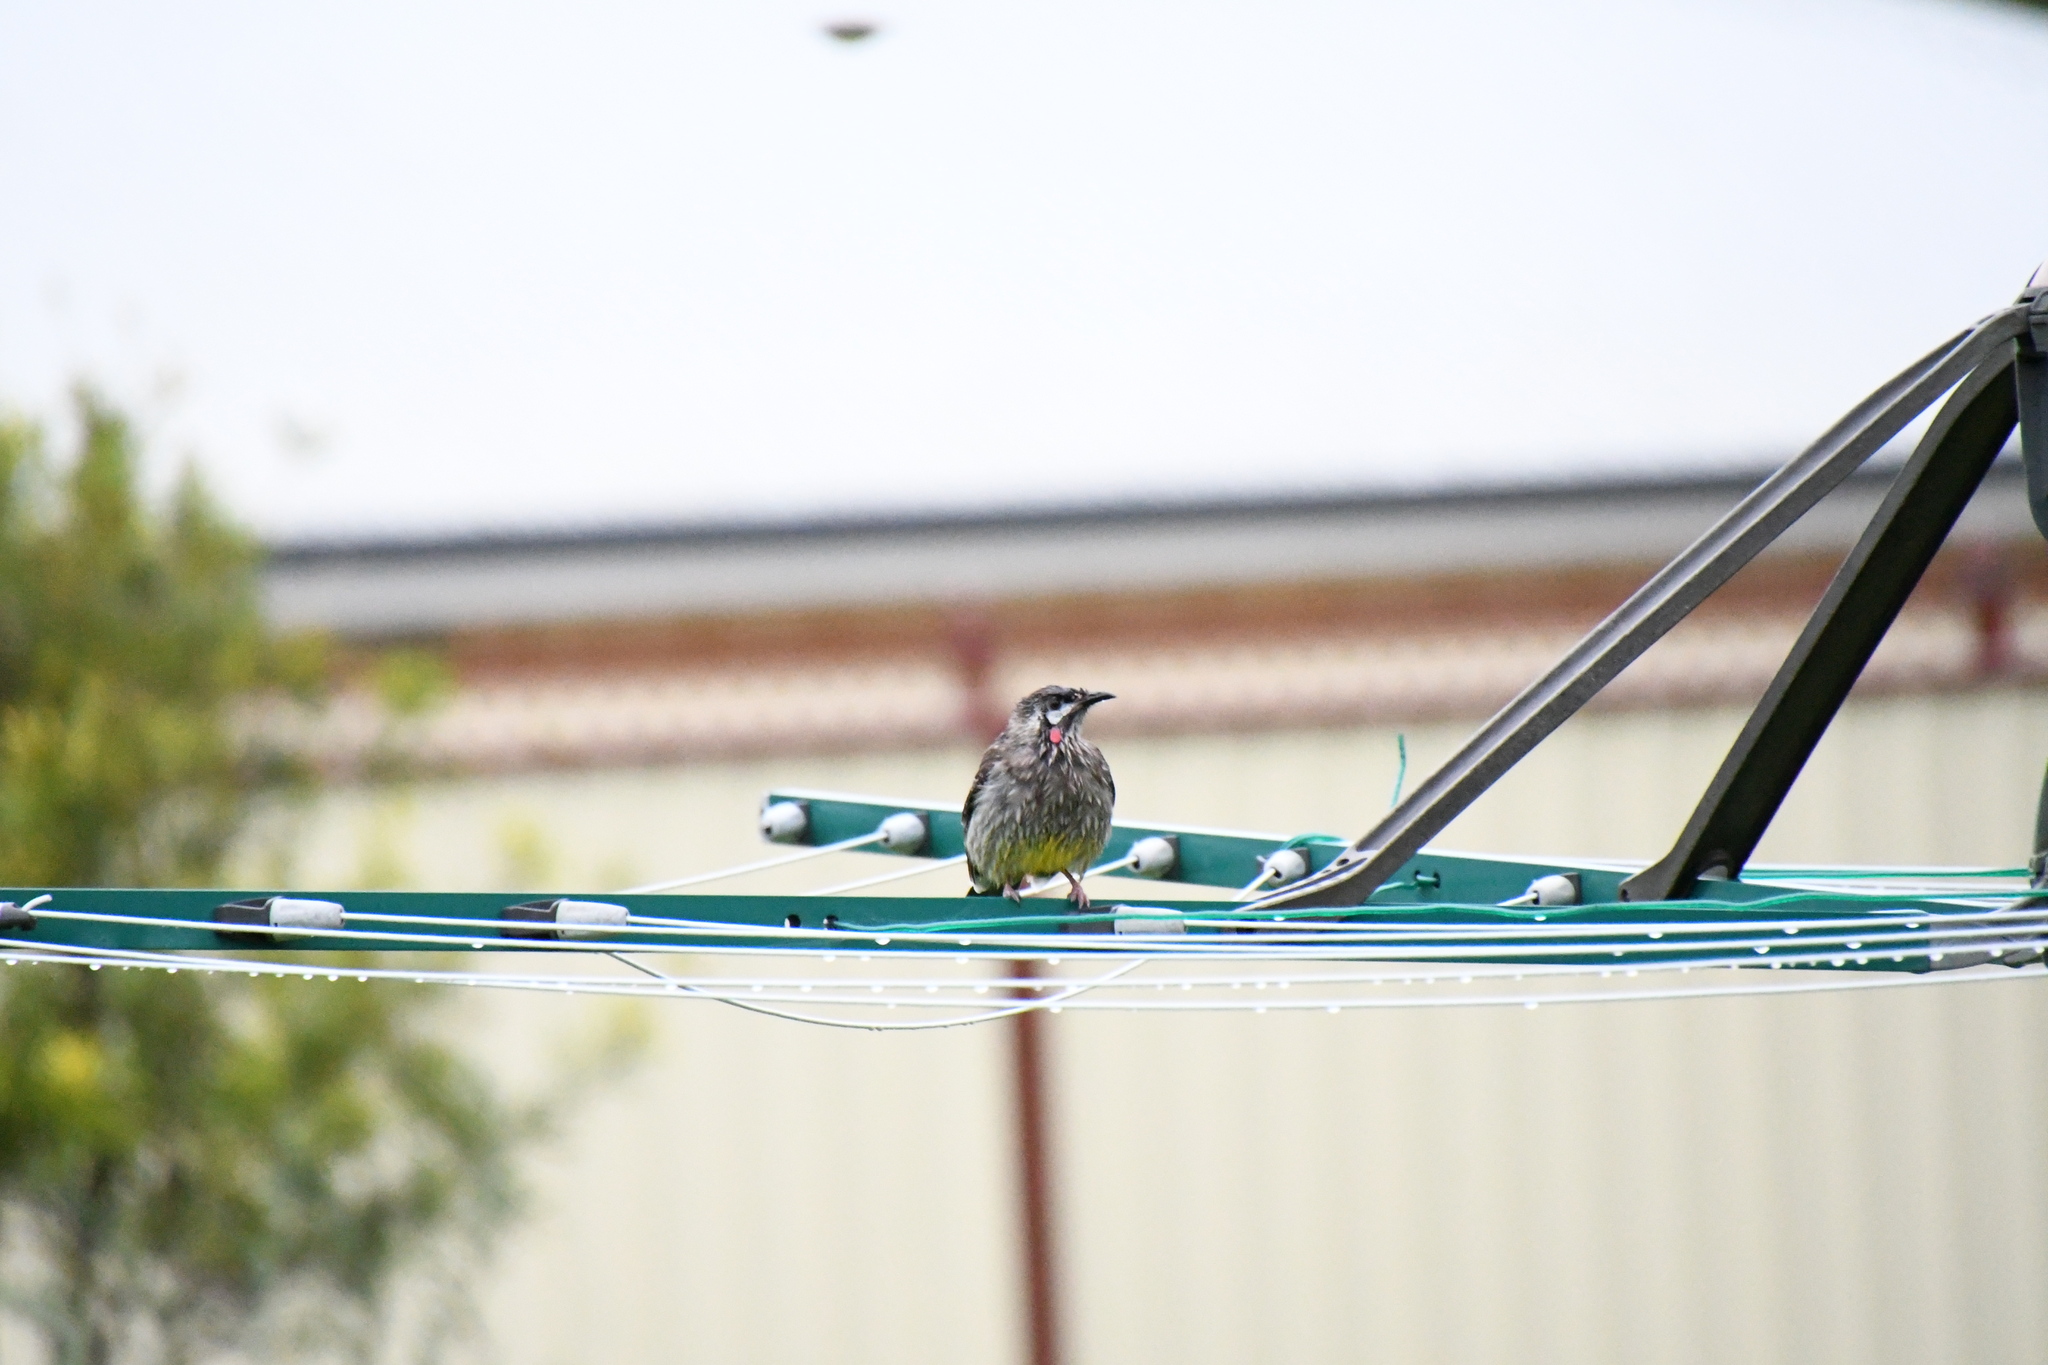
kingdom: Animalia
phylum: Chordata
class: Aves
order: Passeriformes
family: Meliphagidae
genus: Anthochaera
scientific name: Anthochaera carunculata
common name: Red wattlebird
